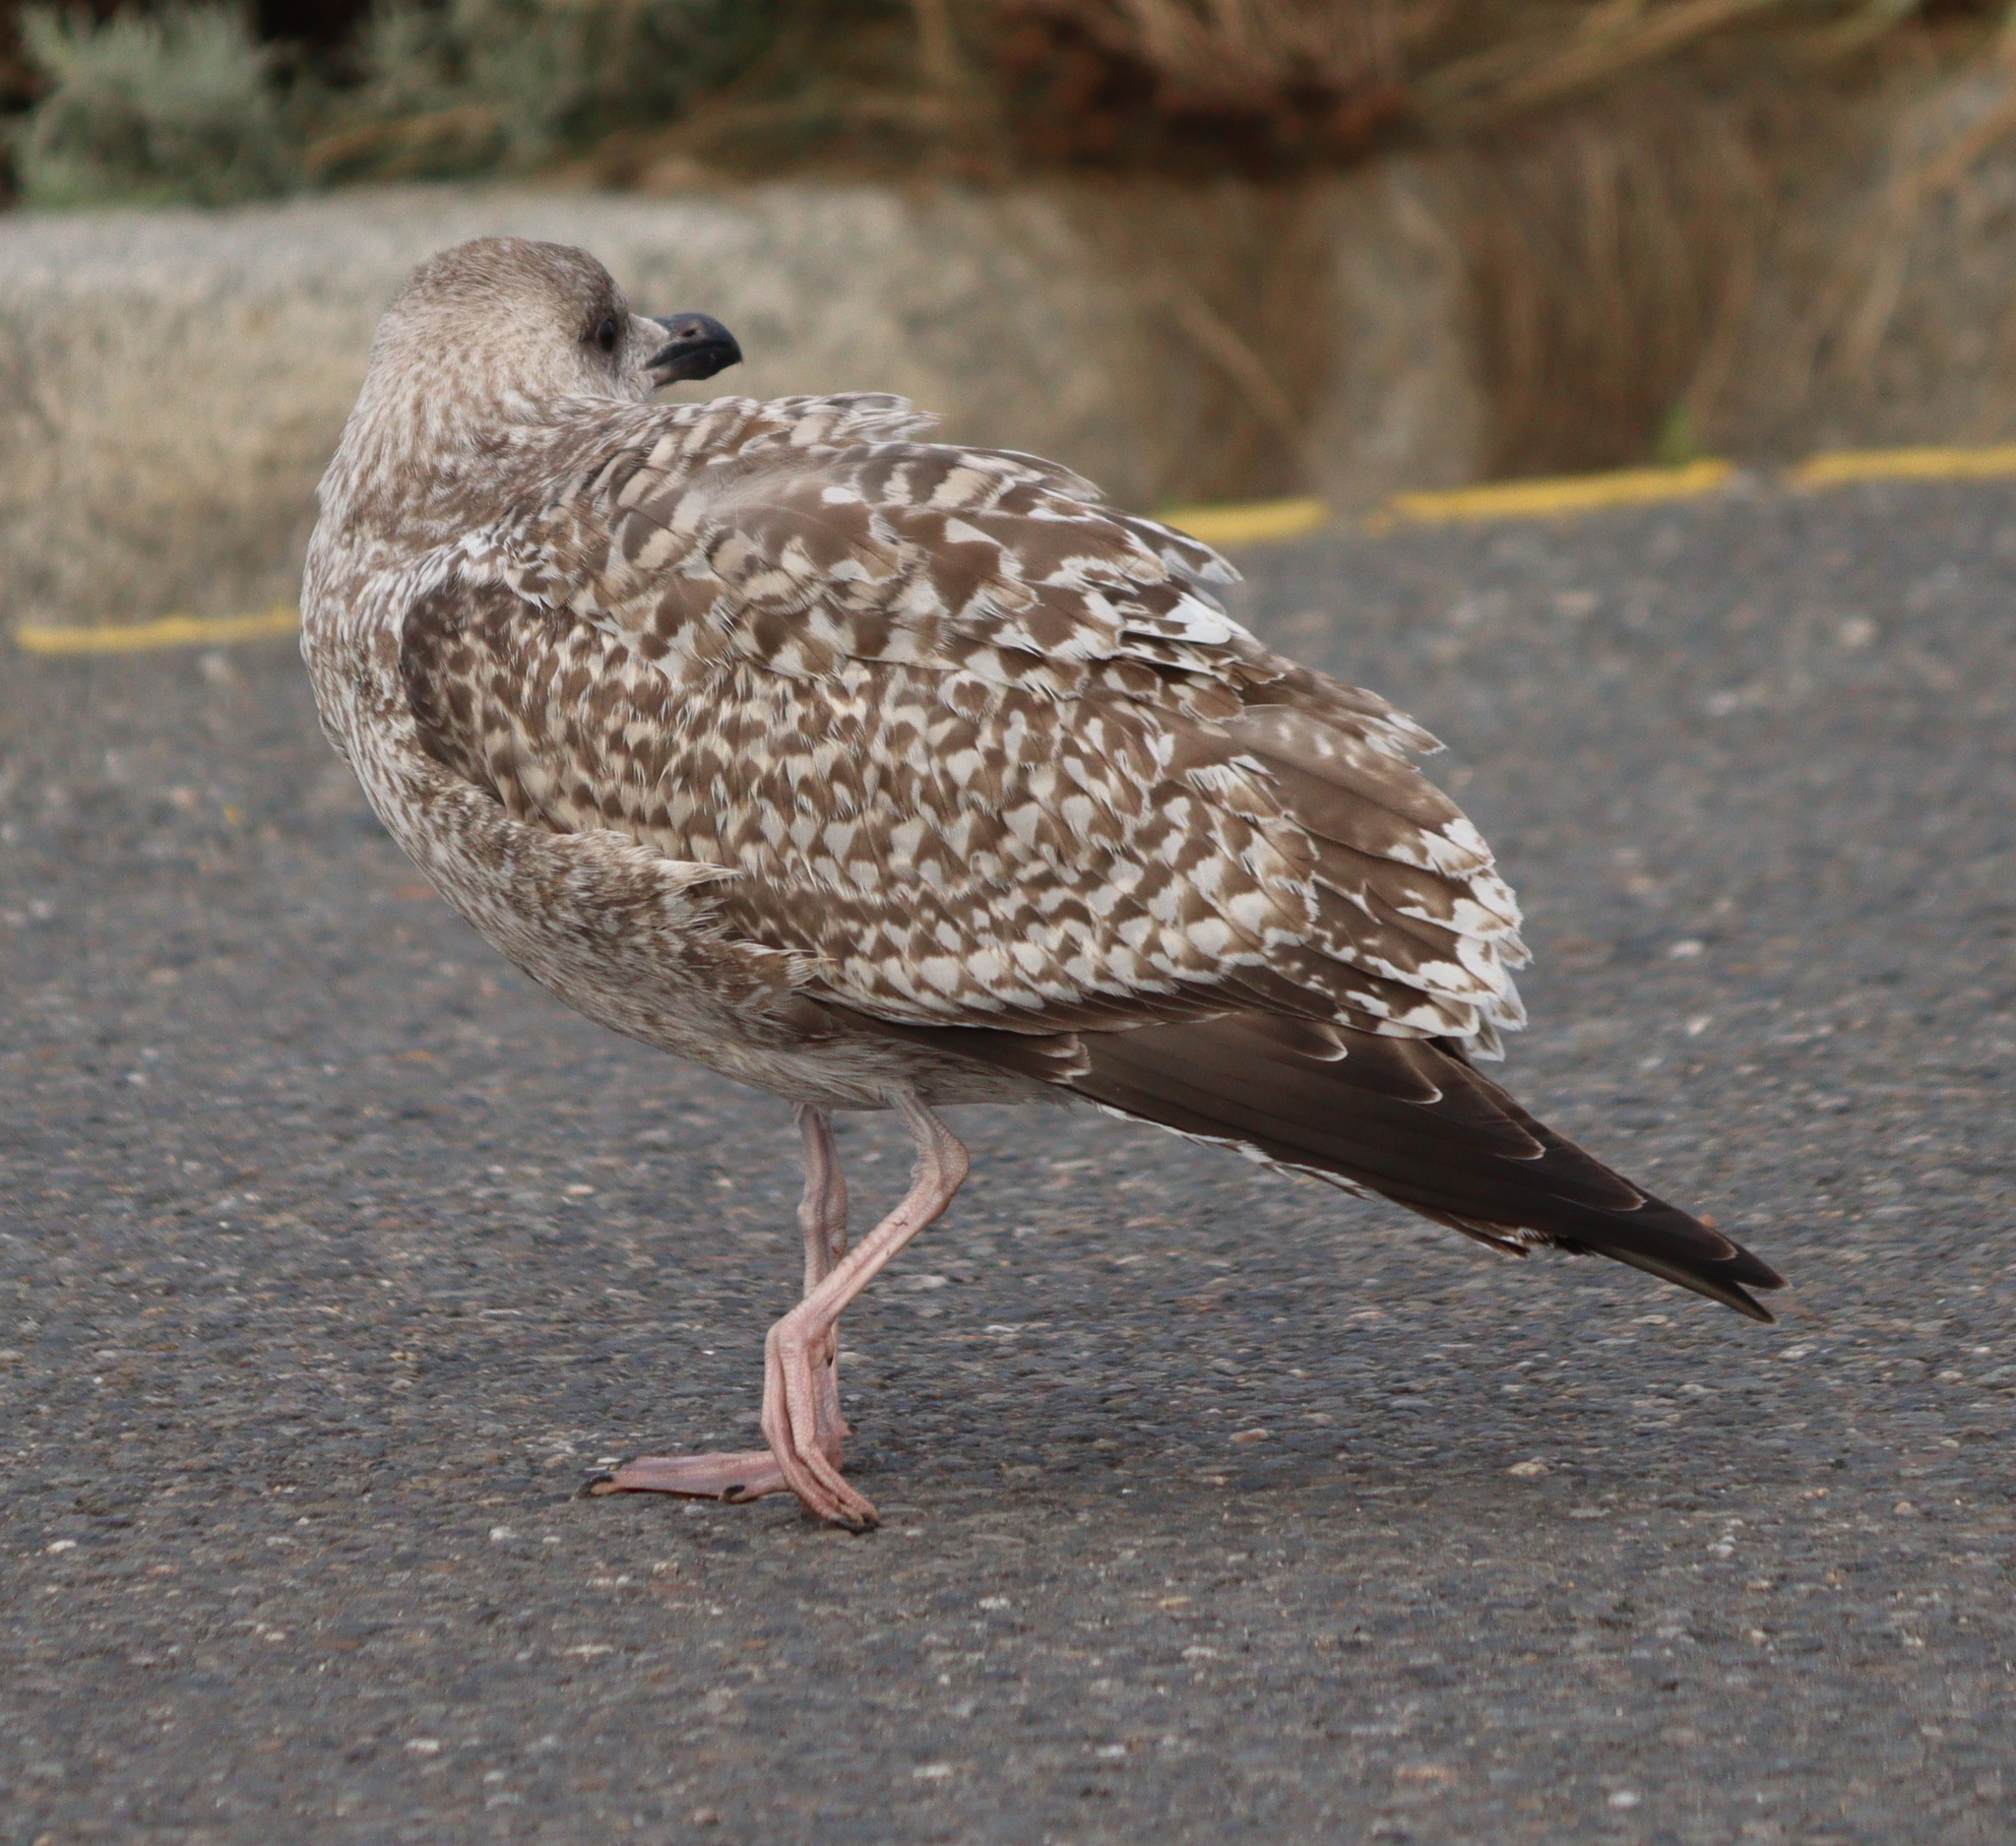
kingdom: Animalia
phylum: Chordata
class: Aves
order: Charadriiformes
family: Laridae
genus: Larus
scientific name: Larus argentatus
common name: Herring gull
